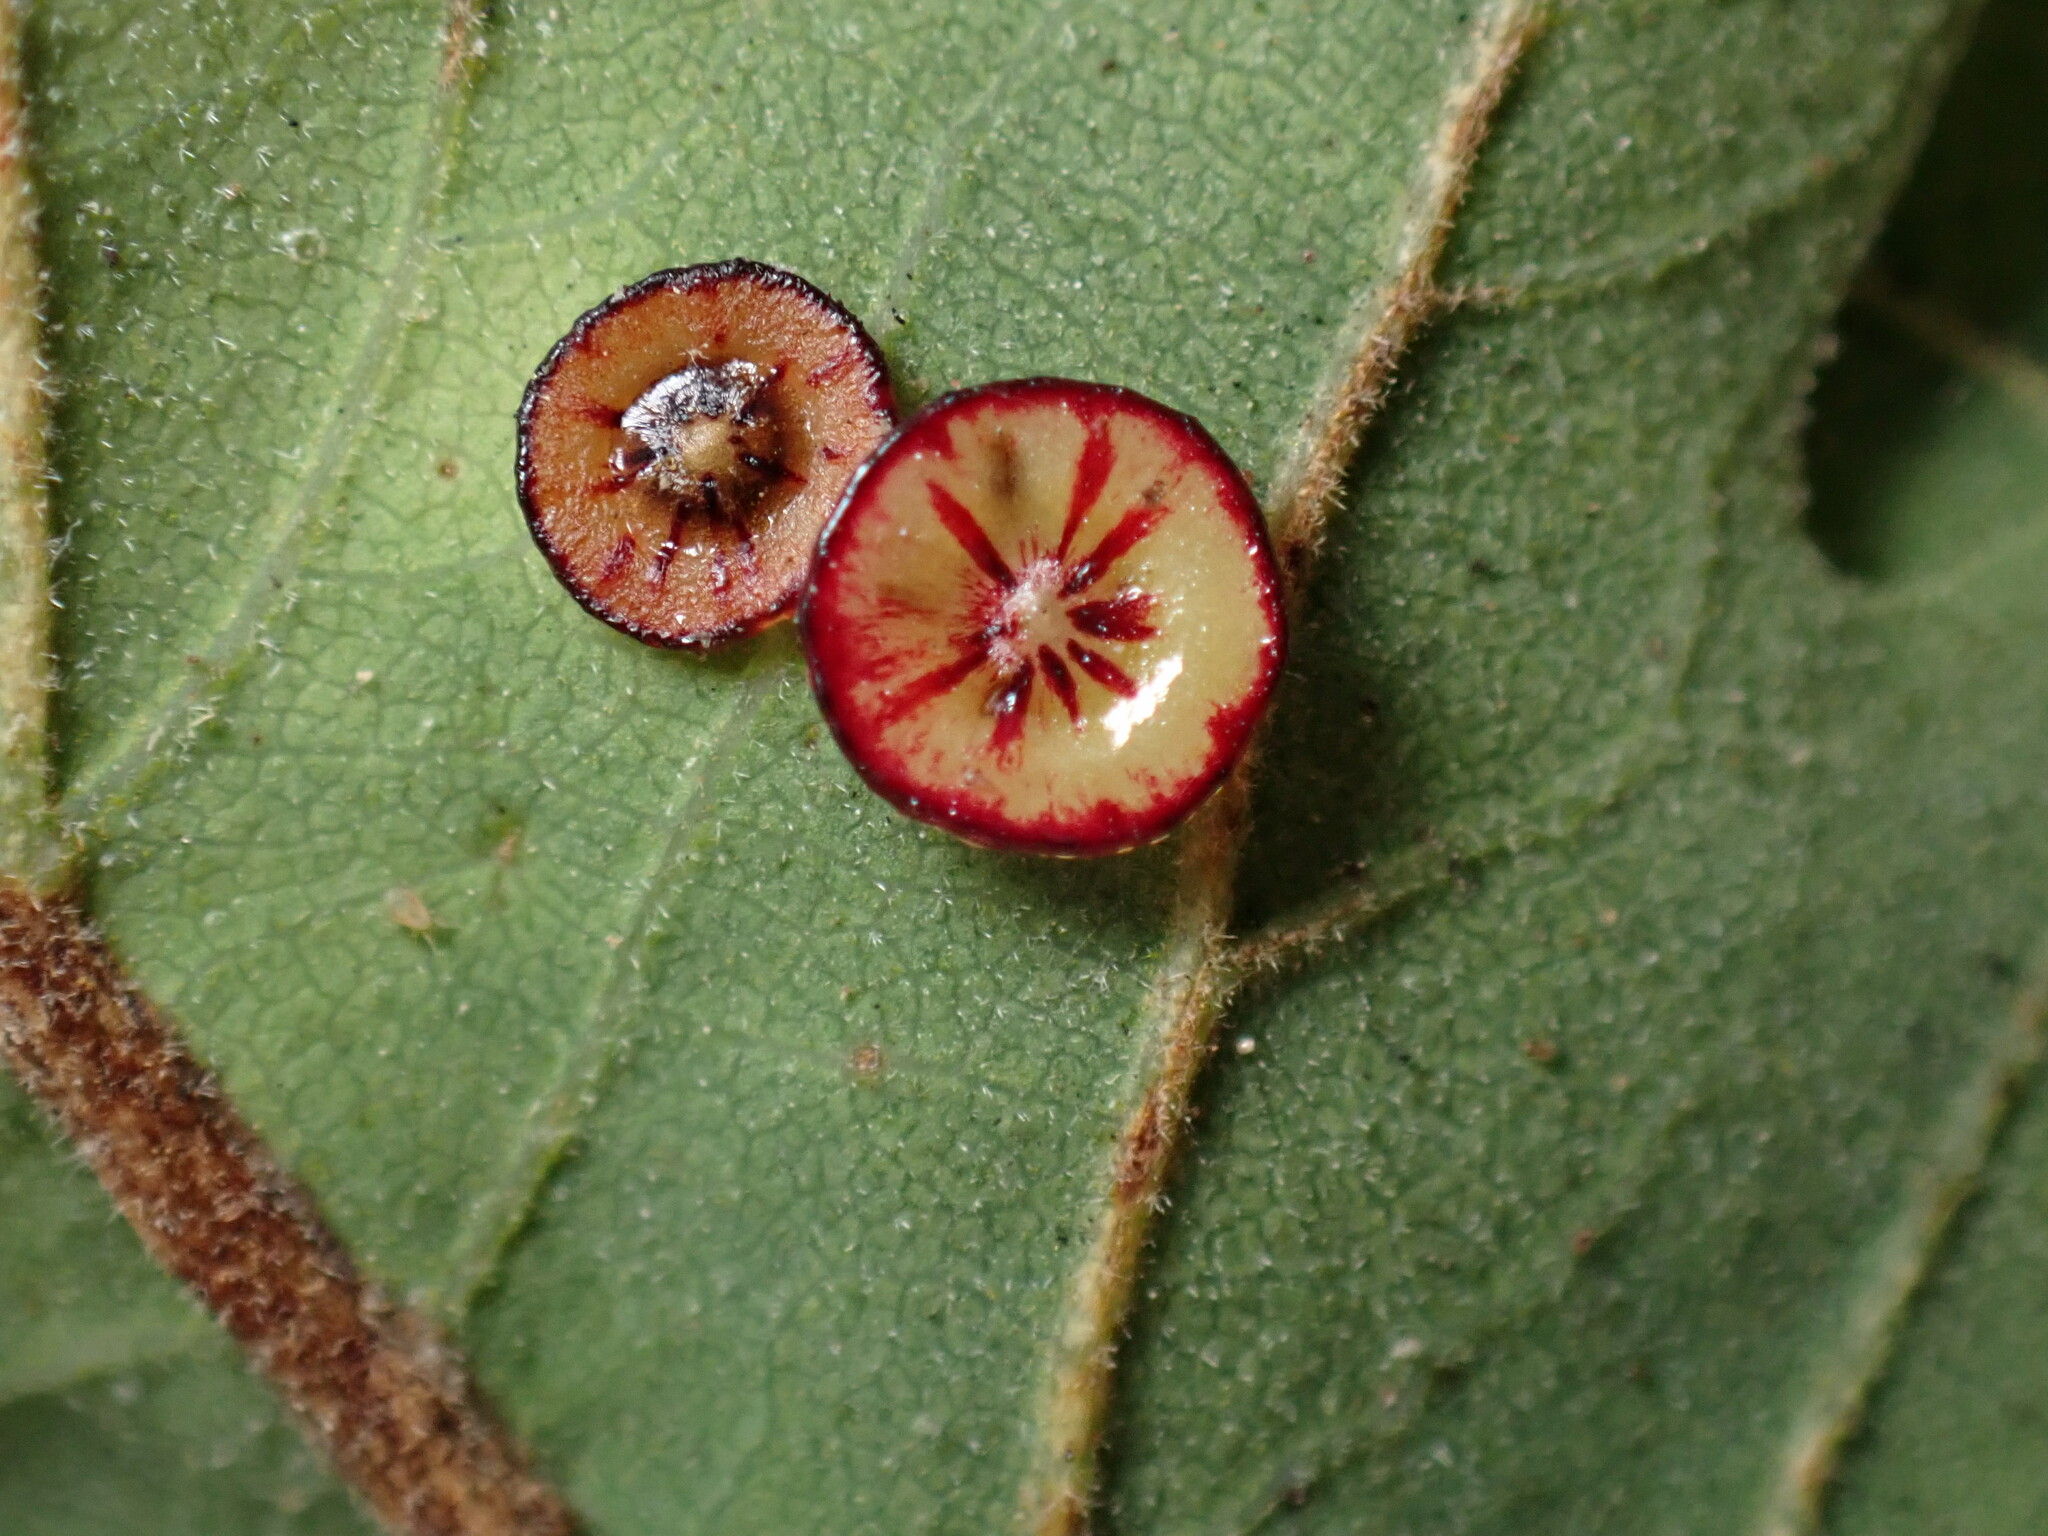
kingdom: Animalia
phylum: Arthropoda
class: Insecta
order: Hymenoptera
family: Cynipidae
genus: Andricus
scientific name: Andricus
